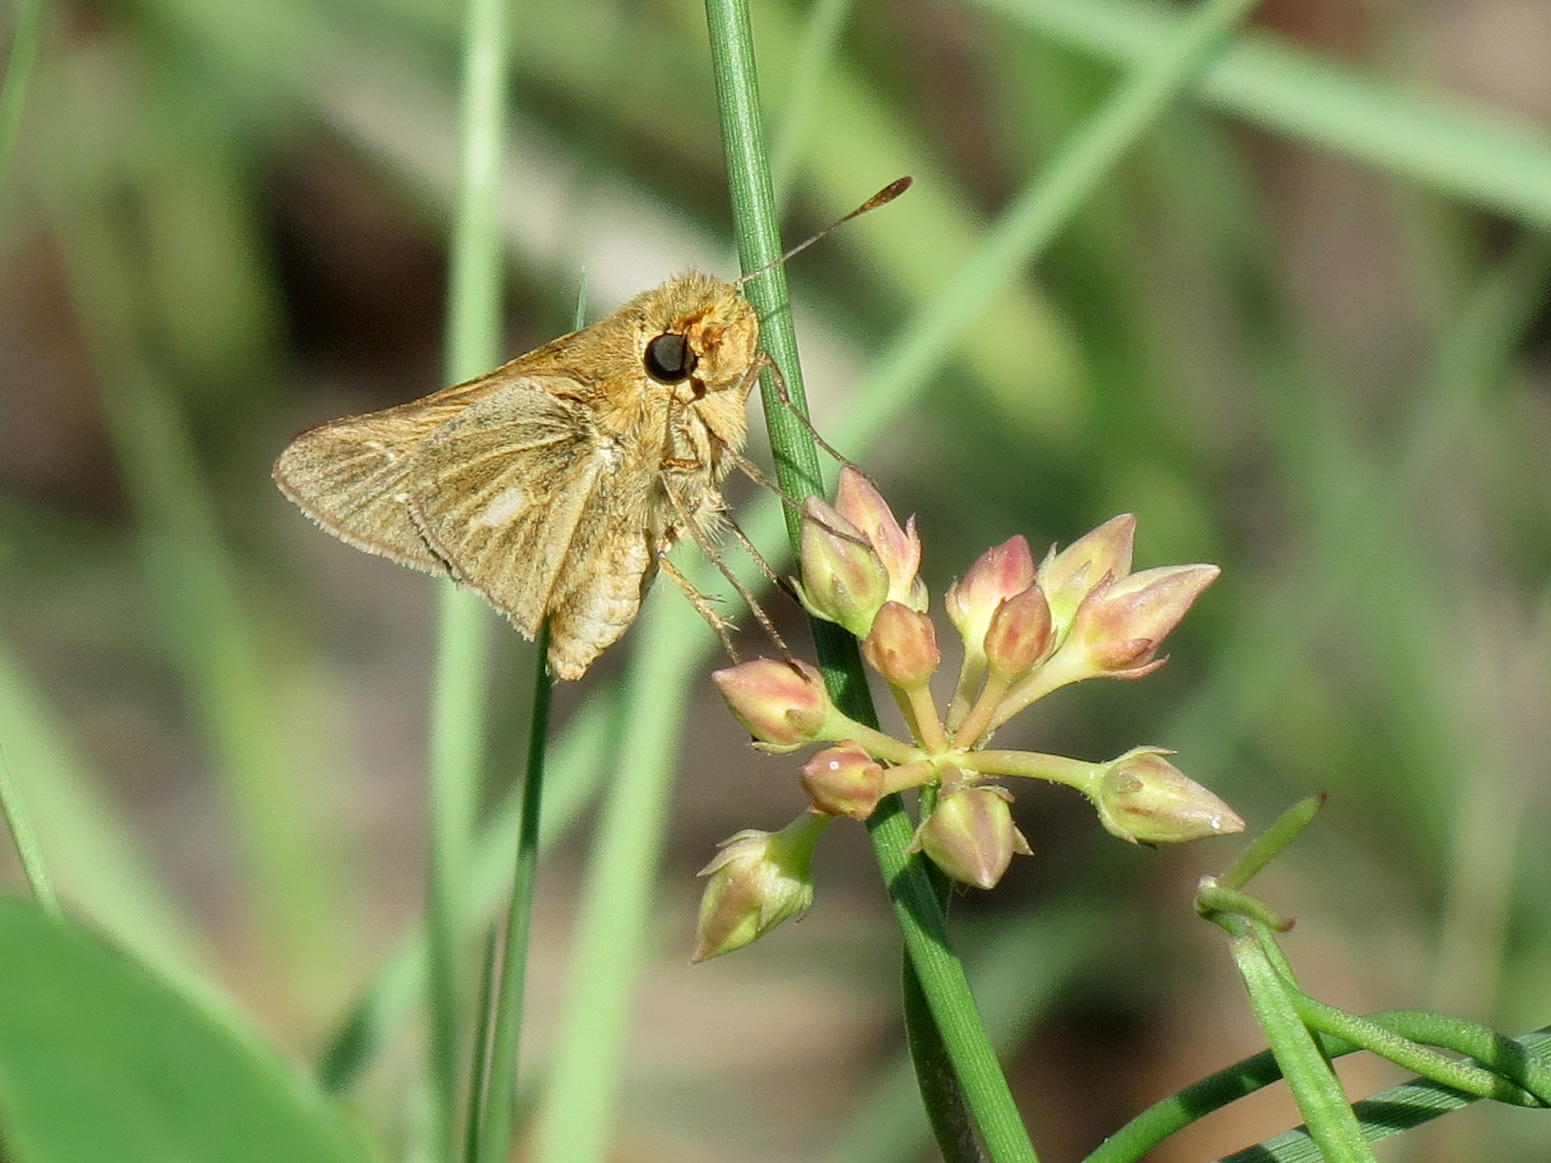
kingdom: Animalia
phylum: Arthropoda
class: Insecta
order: Lepidoptera
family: Hesperiidae
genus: Panoquina
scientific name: Panoquina panoquin
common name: Salt marsh skipper
